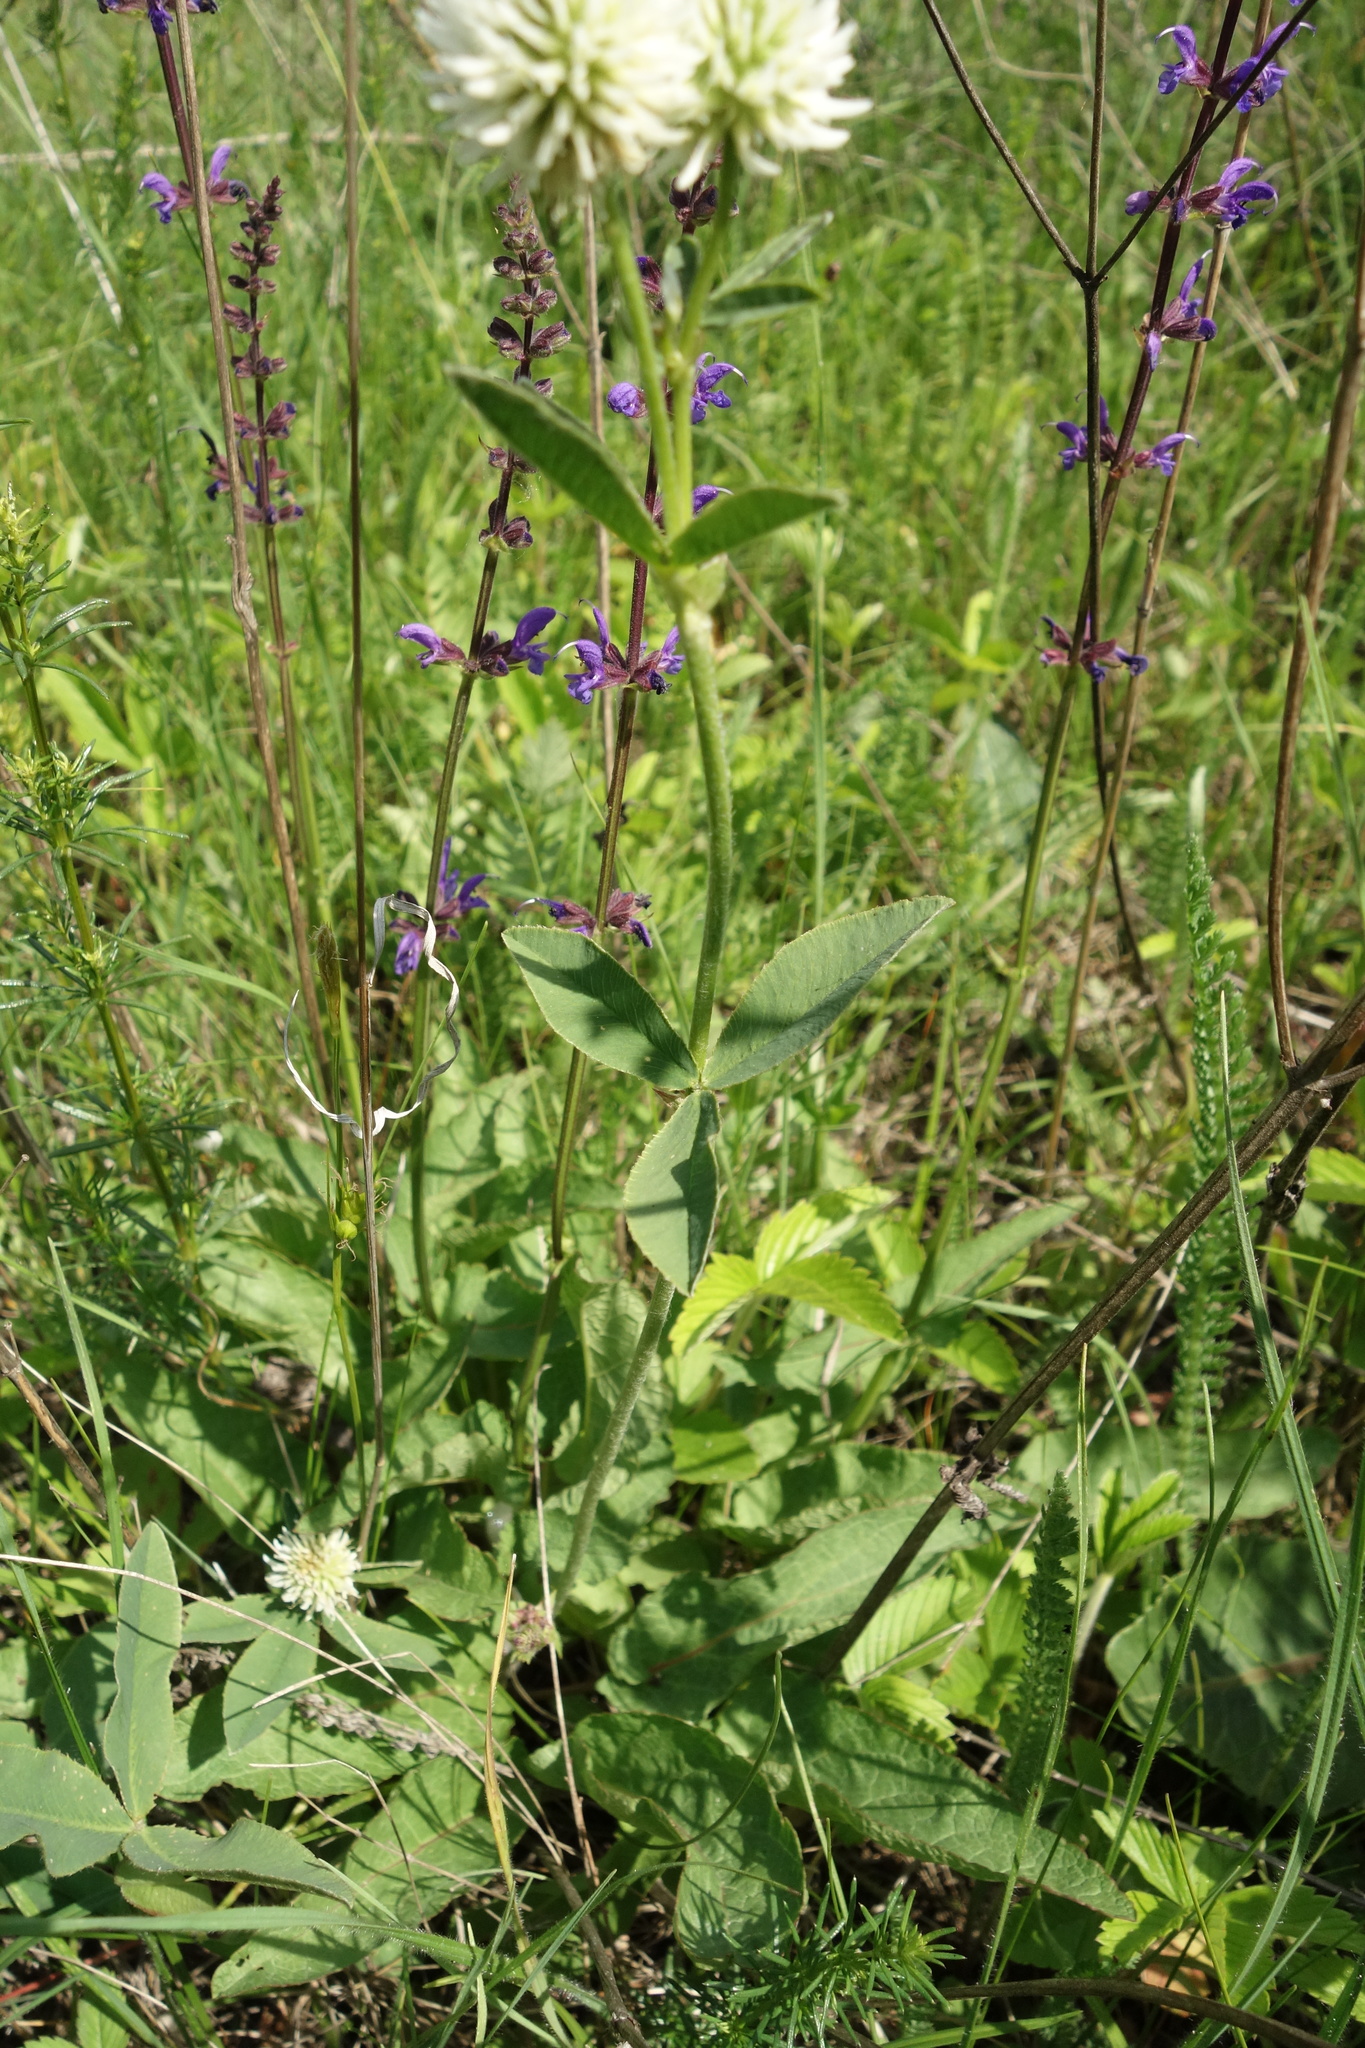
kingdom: Plantae
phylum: Tracheophyta
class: Magnoliopsida
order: Fabales
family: Fabaceae
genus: Trifolium
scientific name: Trifolium montanum
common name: Mountain clover
